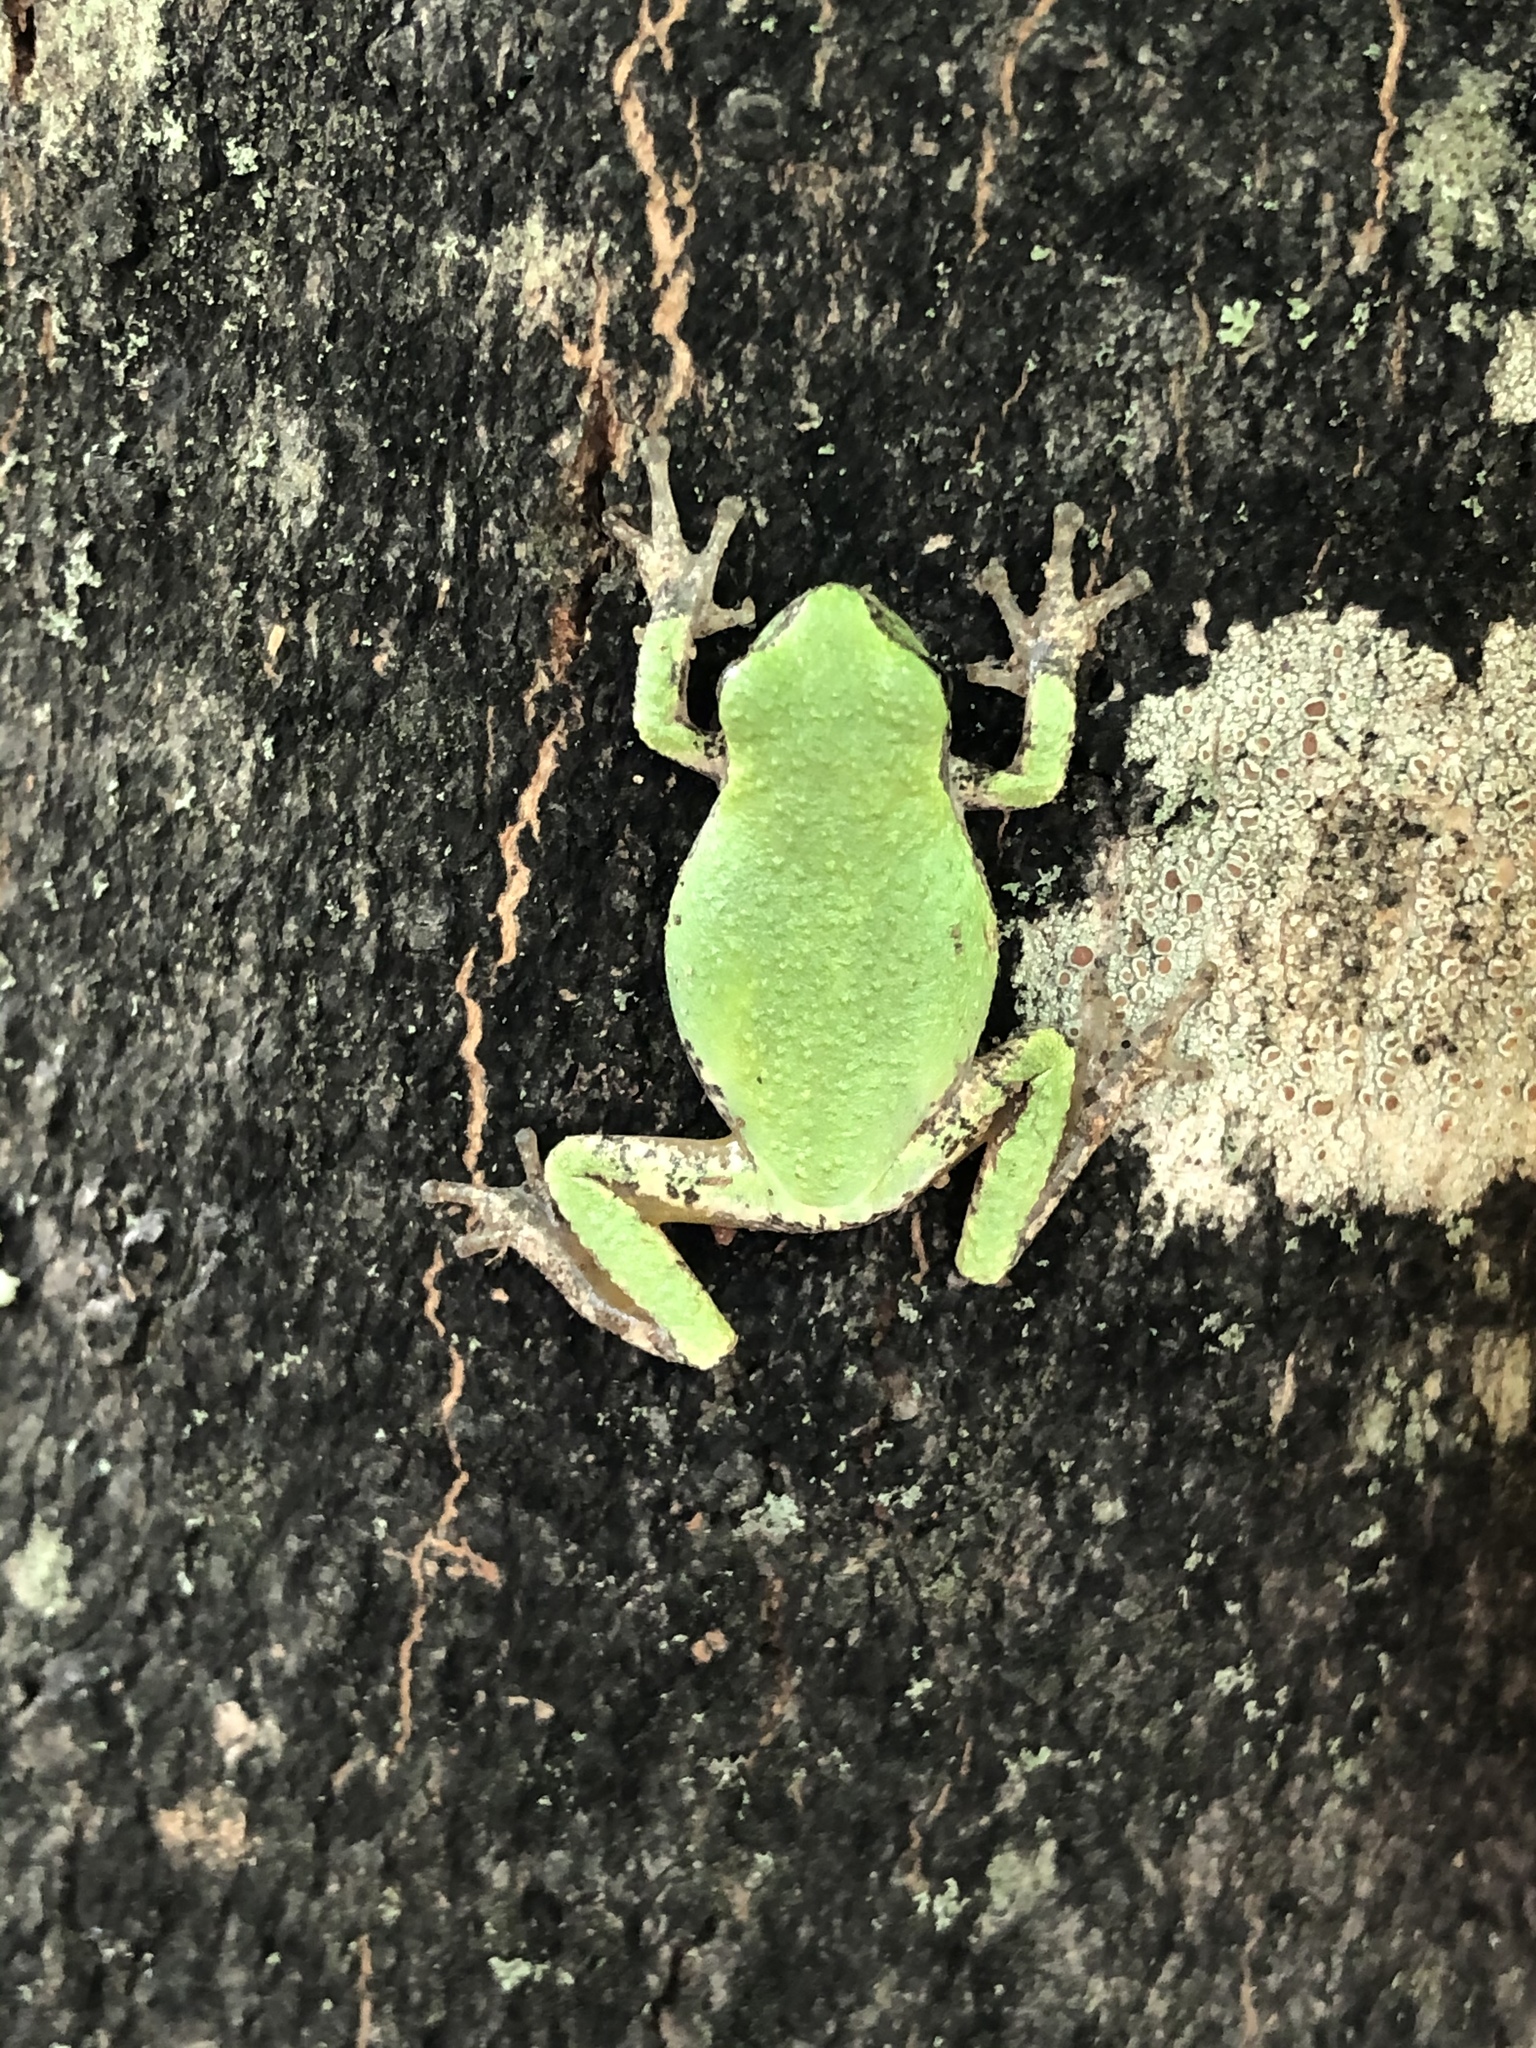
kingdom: Animalia
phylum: Chordata
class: Amphibia
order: Anura
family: Hylidae
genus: Dryophytes
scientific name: Dryophytes versicolor
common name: Gray treefrog
